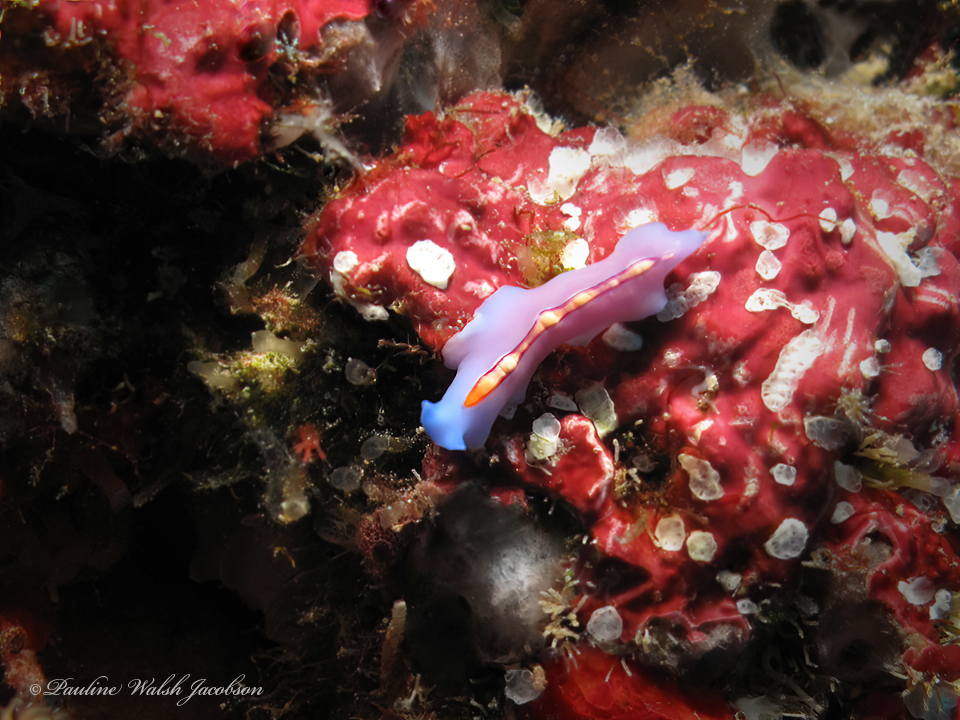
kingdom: Animalia
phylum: Platyhelminthes
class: Turbellaria
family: Pseudocerotidae
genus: Pseudoceros
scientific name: Pseudoceros liparus
